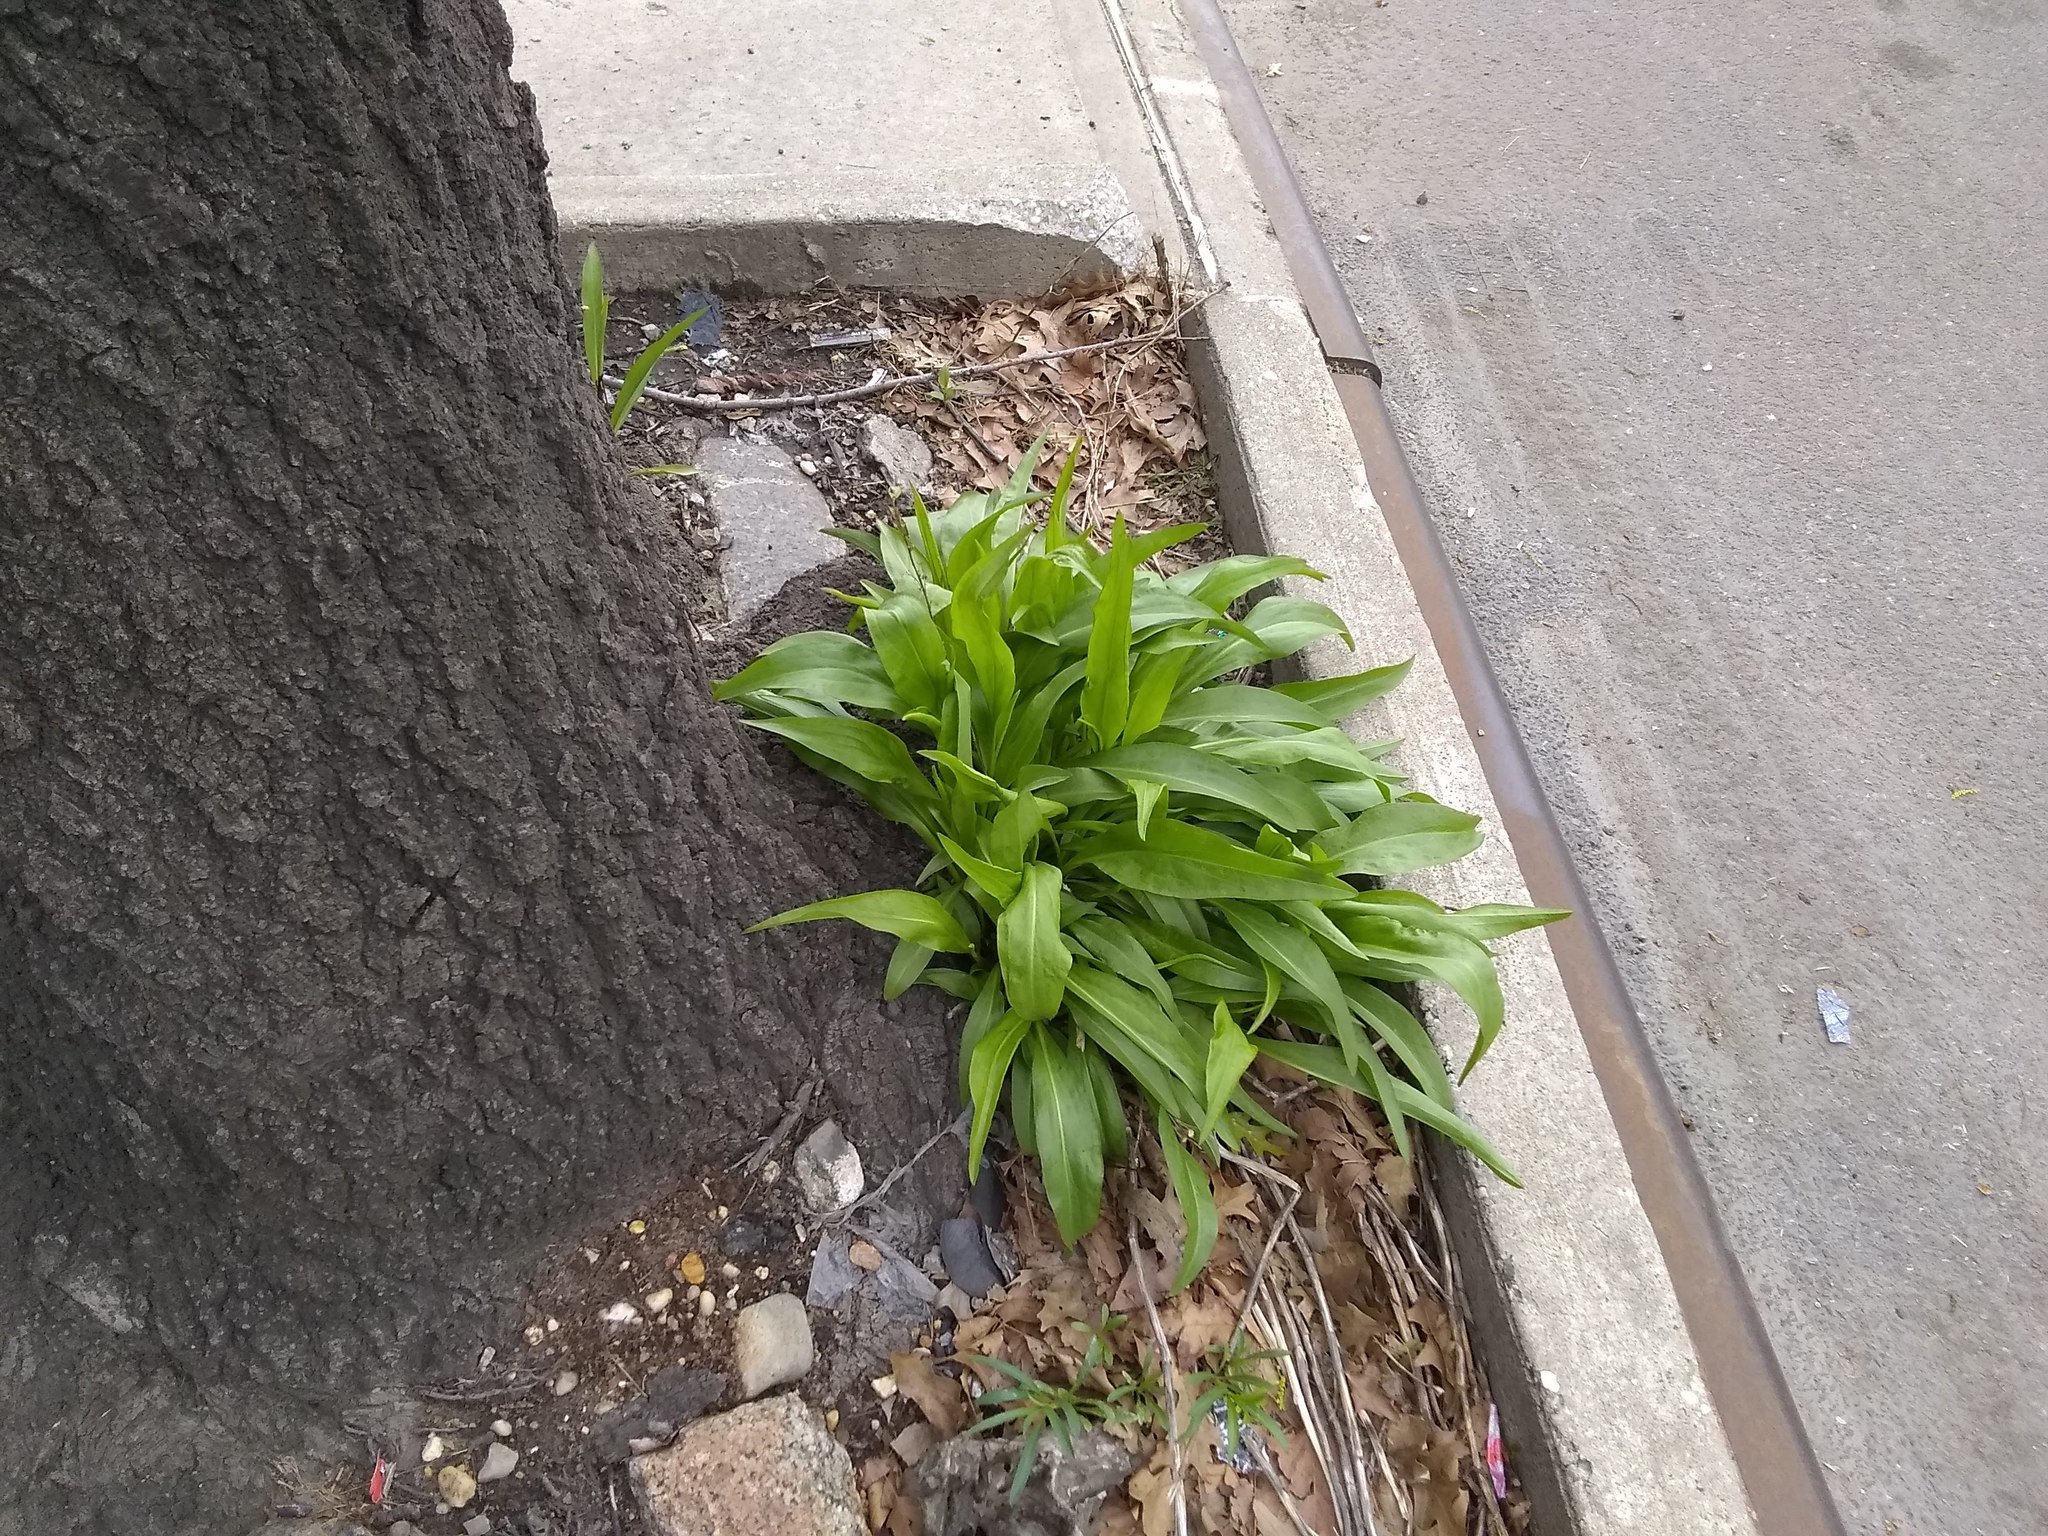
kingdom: Plantae
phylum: Tracheophyta
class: Magnoliopsida
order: Asterales
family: Asteraceae
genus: Solidago
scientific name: Solidago sempervirens
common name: Salt-marsh goldenrod
